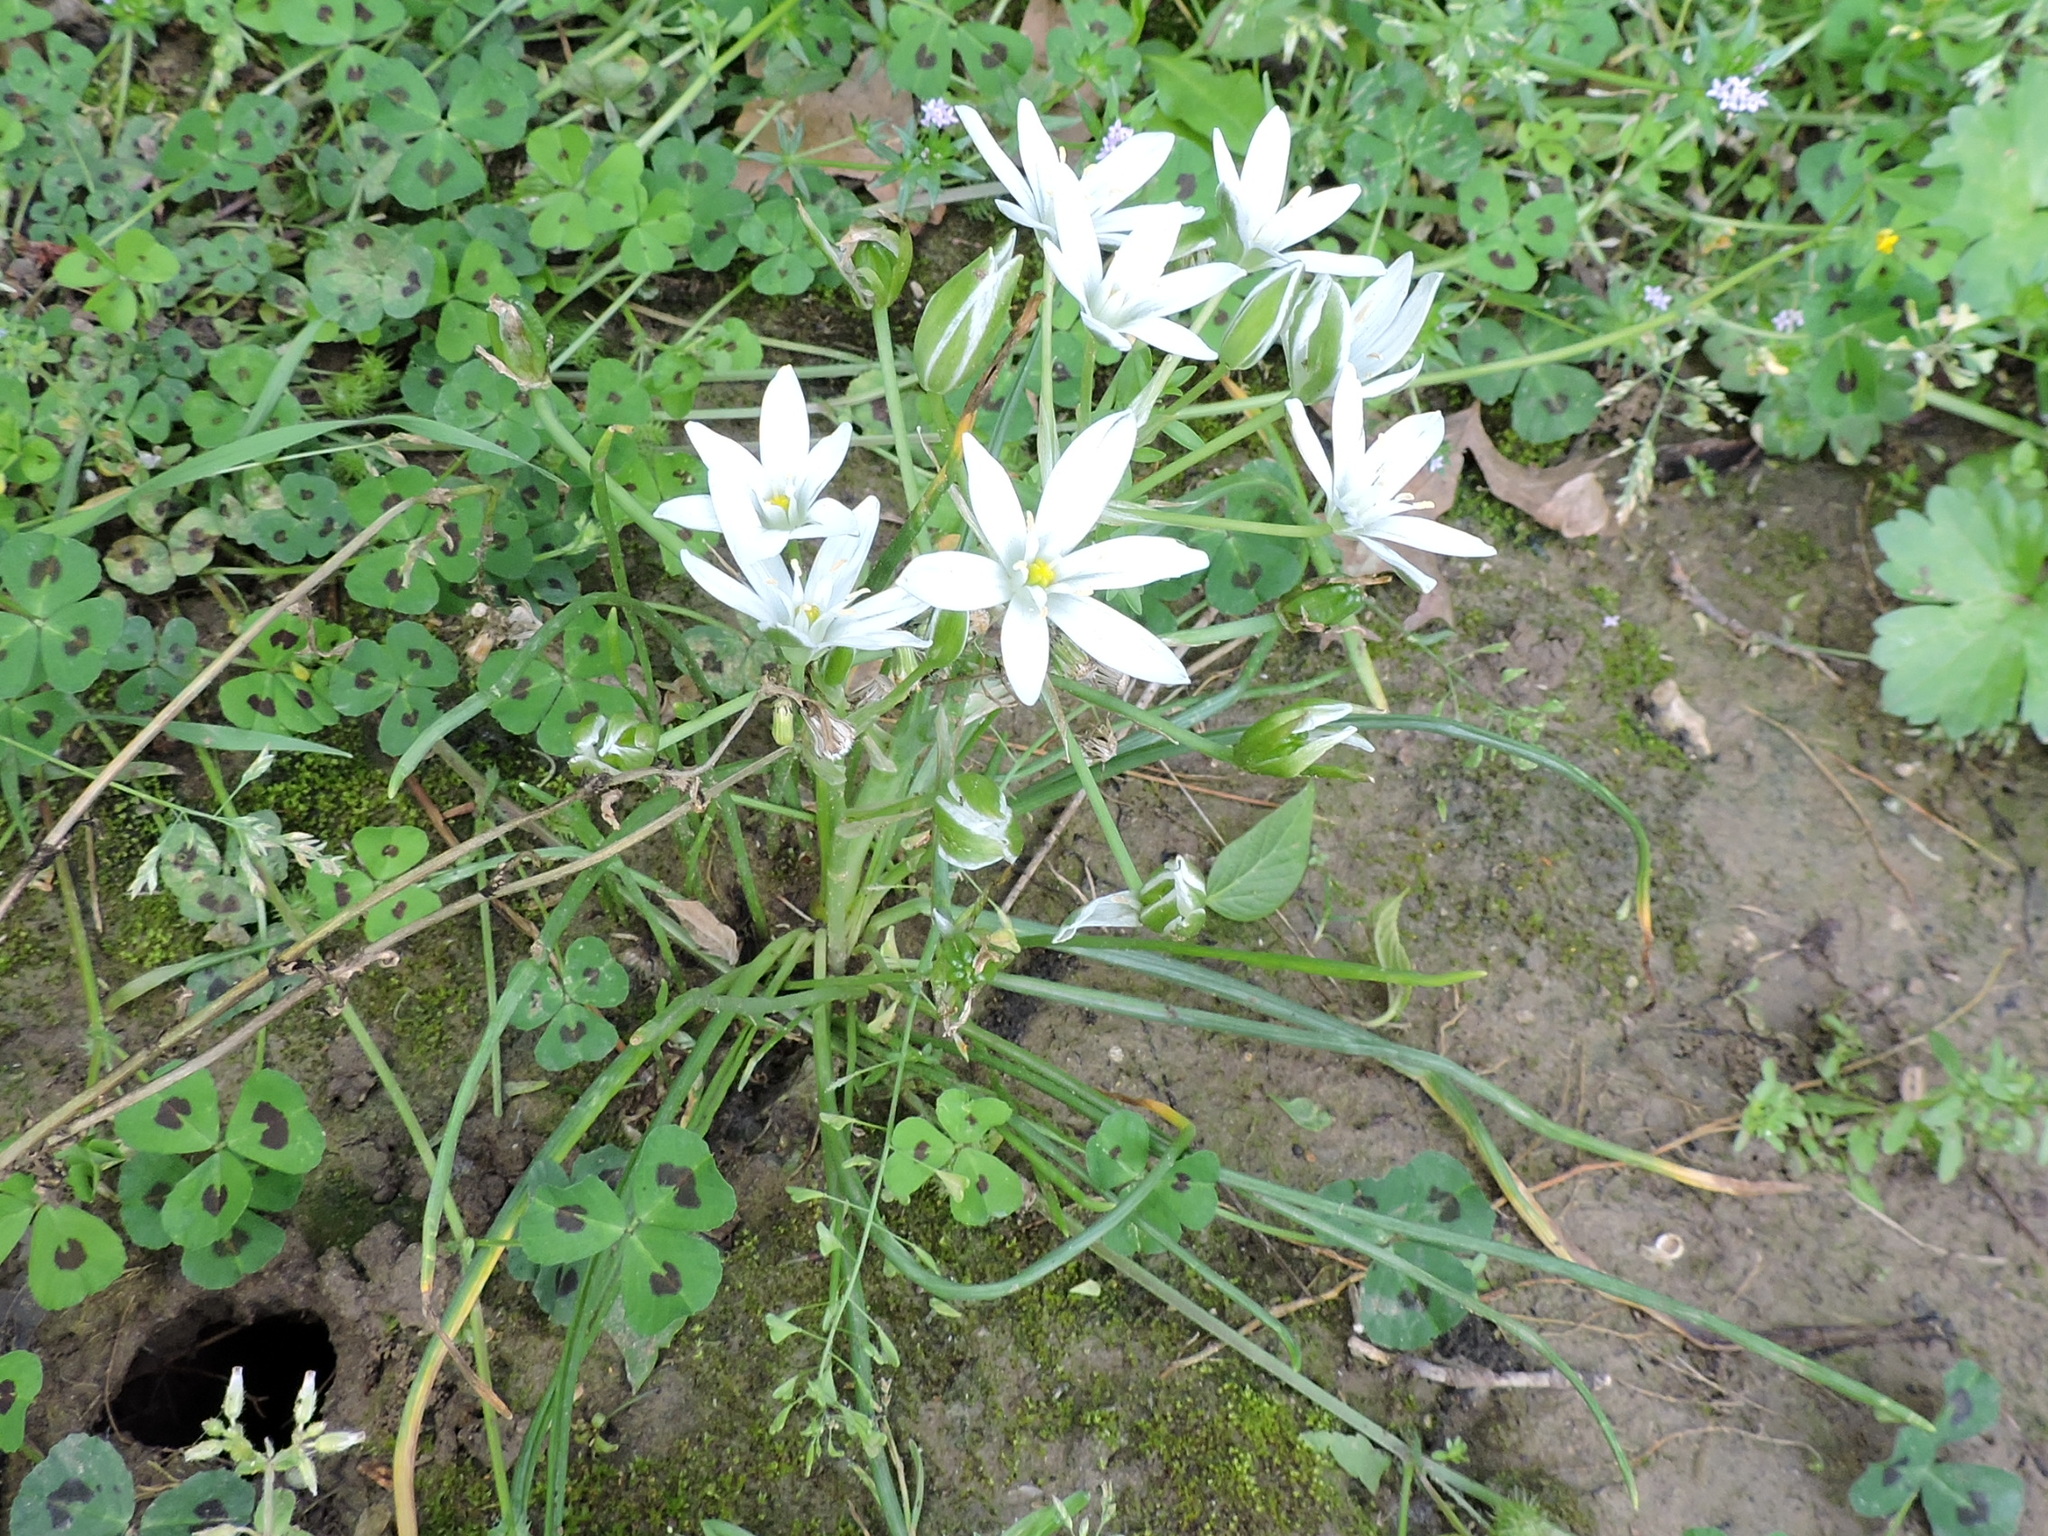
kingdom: Plantae
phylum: Tracheophyta
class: Liliopsida
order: Asparagales
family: Asparagaceae
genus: Ornithogalum
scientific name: Ornithogalum umbellatum
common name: Garden star-of-bethlehem
